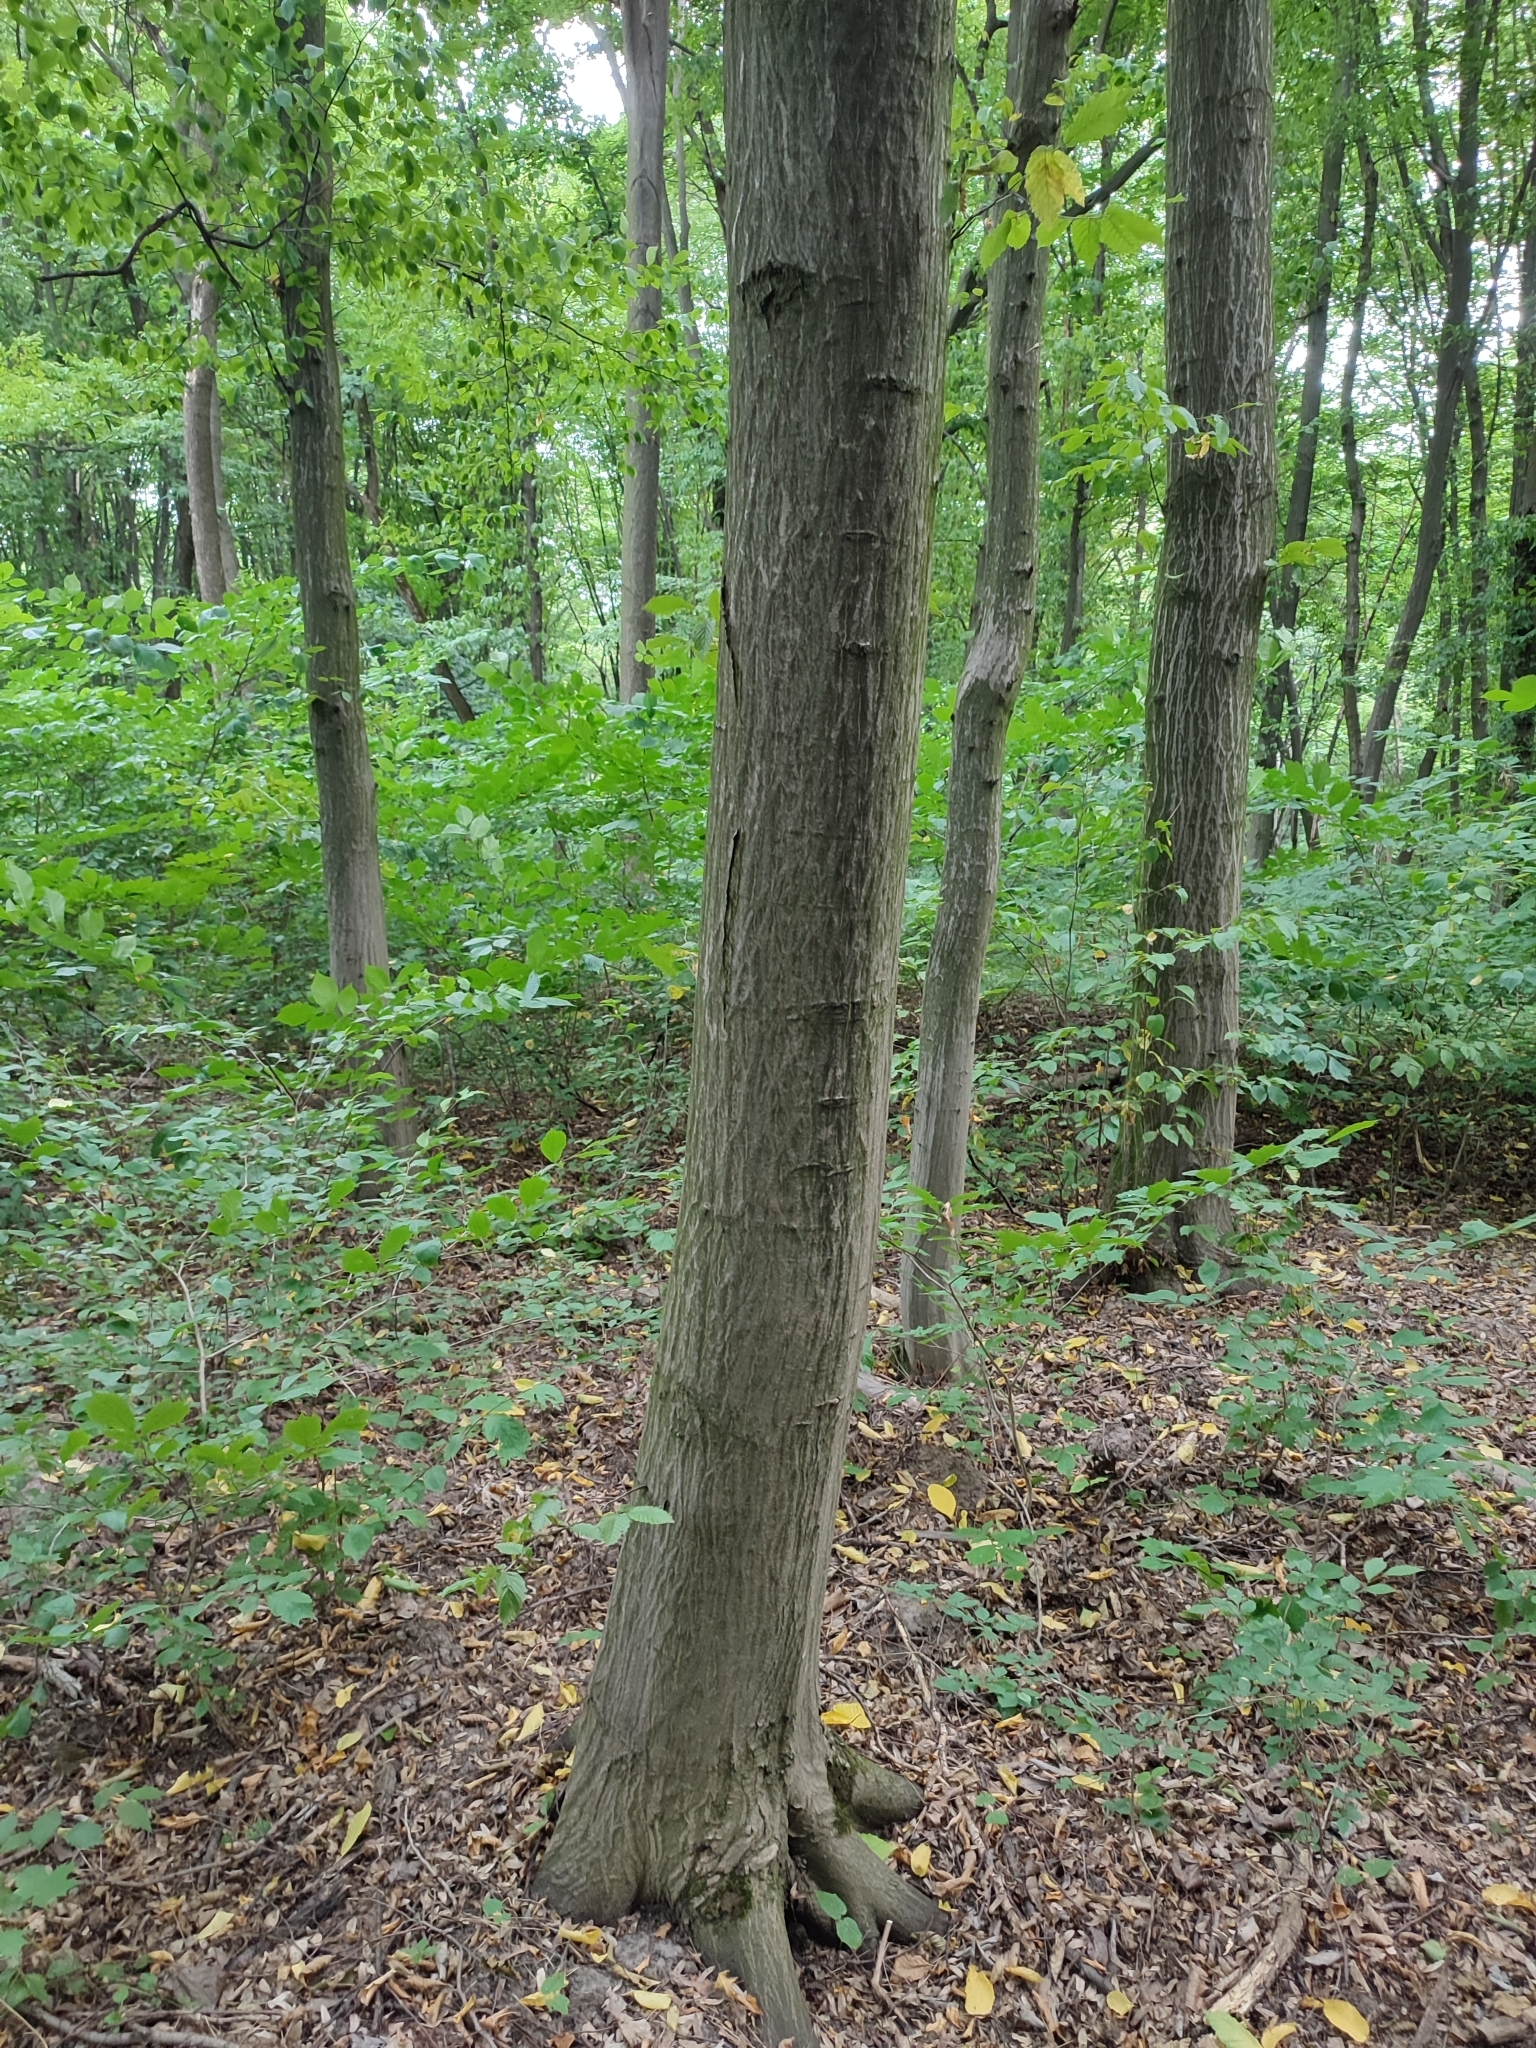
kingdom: Plantae
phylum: Tracheophyta
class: Magnoliopsida
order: Fagales
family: Betulaceae
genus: Carpinus
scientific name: Carpinus betulus
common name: Hornbeam
